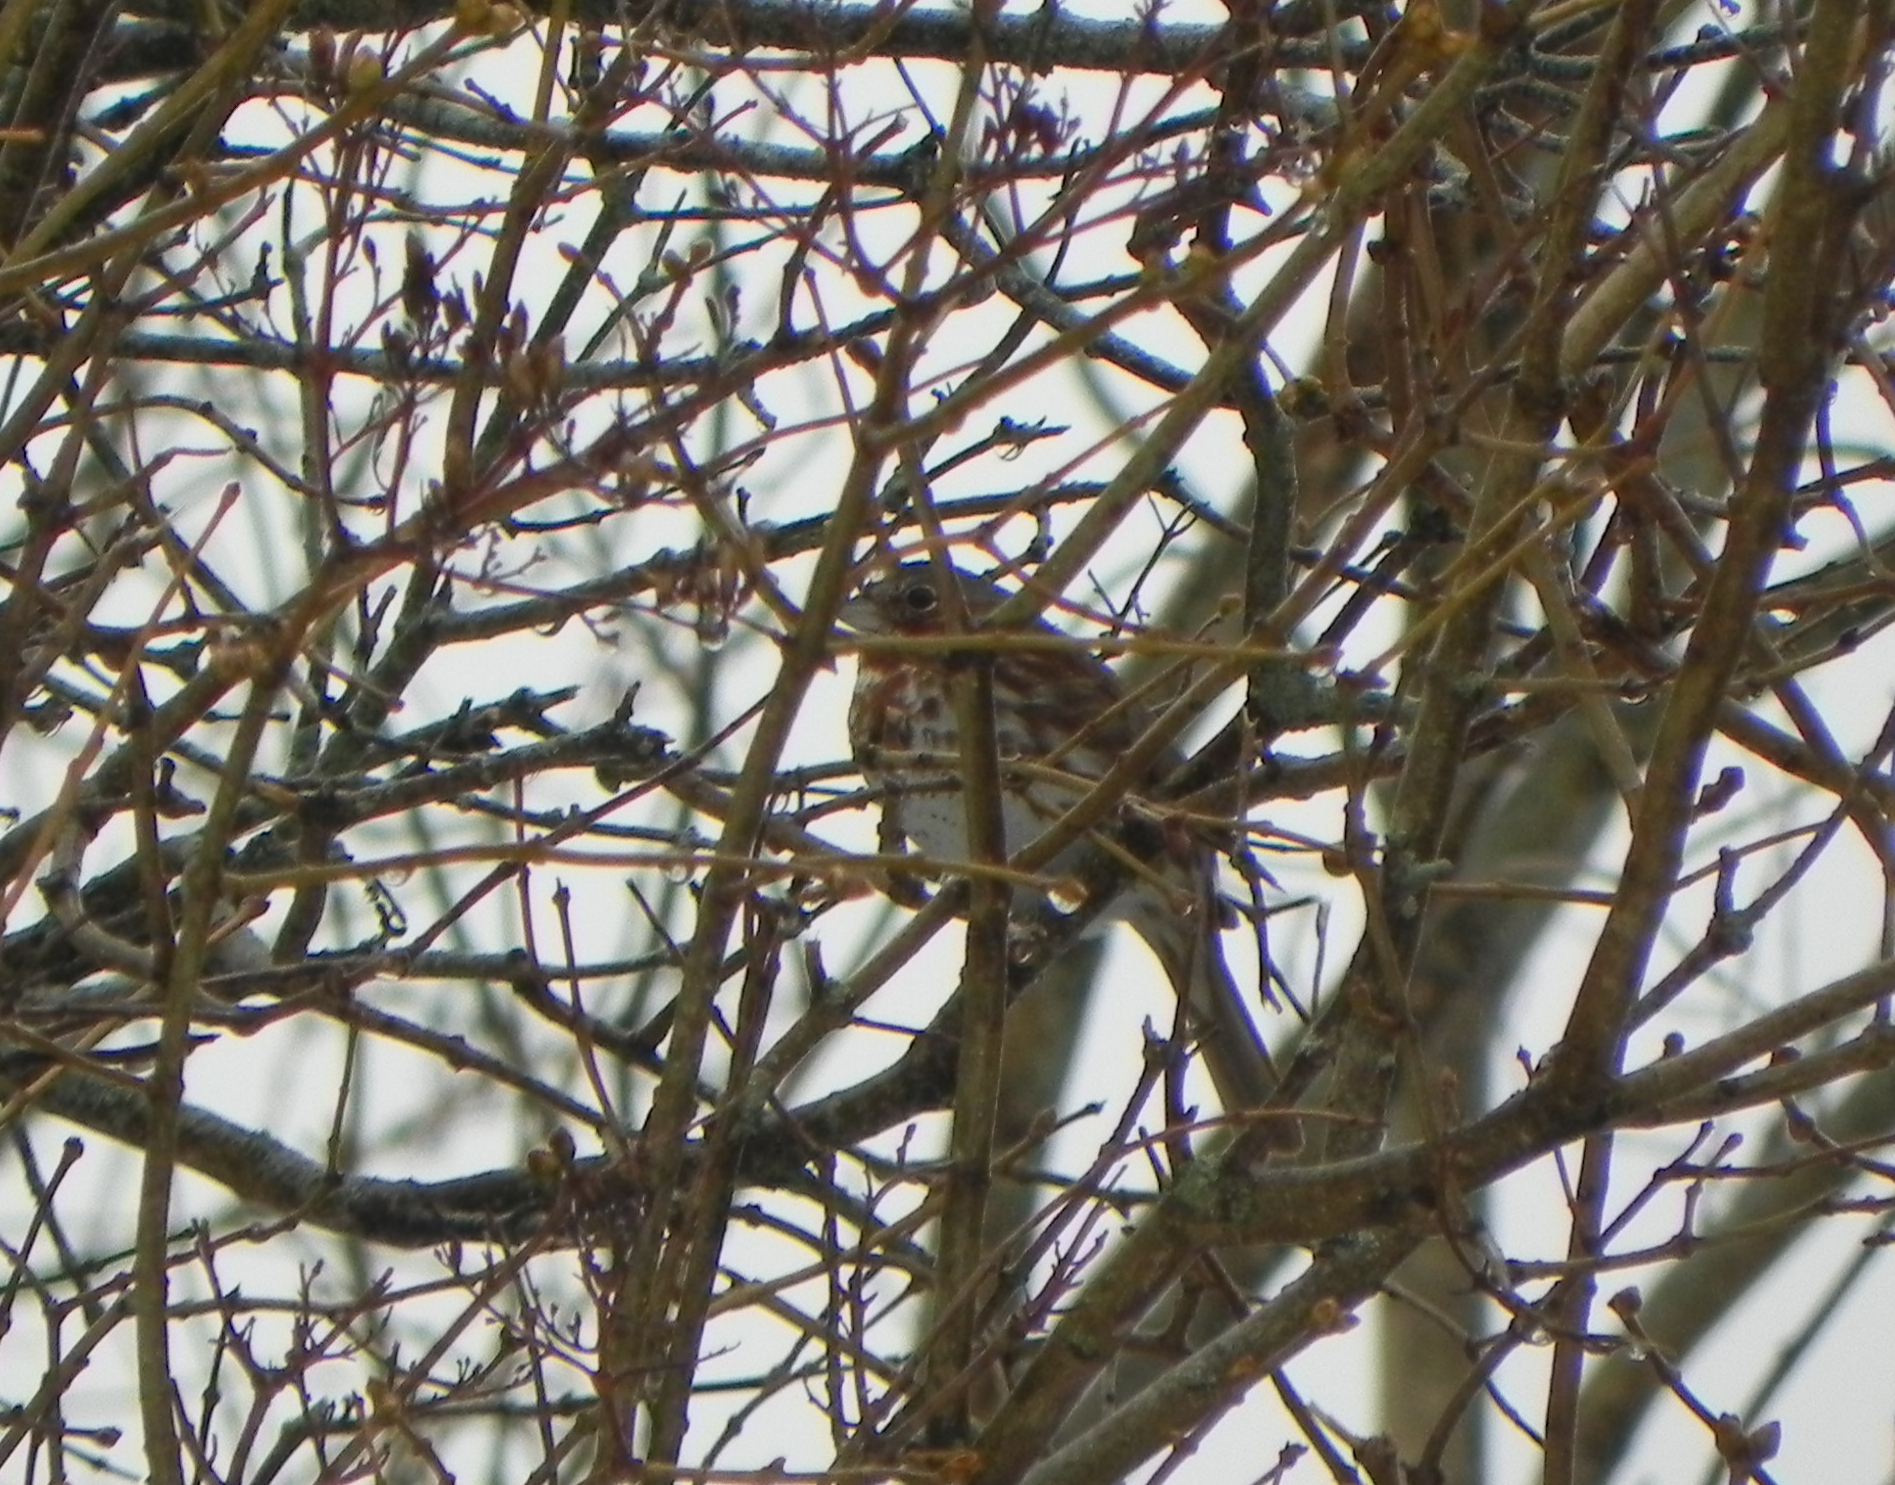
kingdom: Animalia
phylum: Chordata
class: Aves
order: Passeriformes
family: Passerellidae
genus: Passerella
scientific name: Passerella iliaca
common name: Fox sparrow
